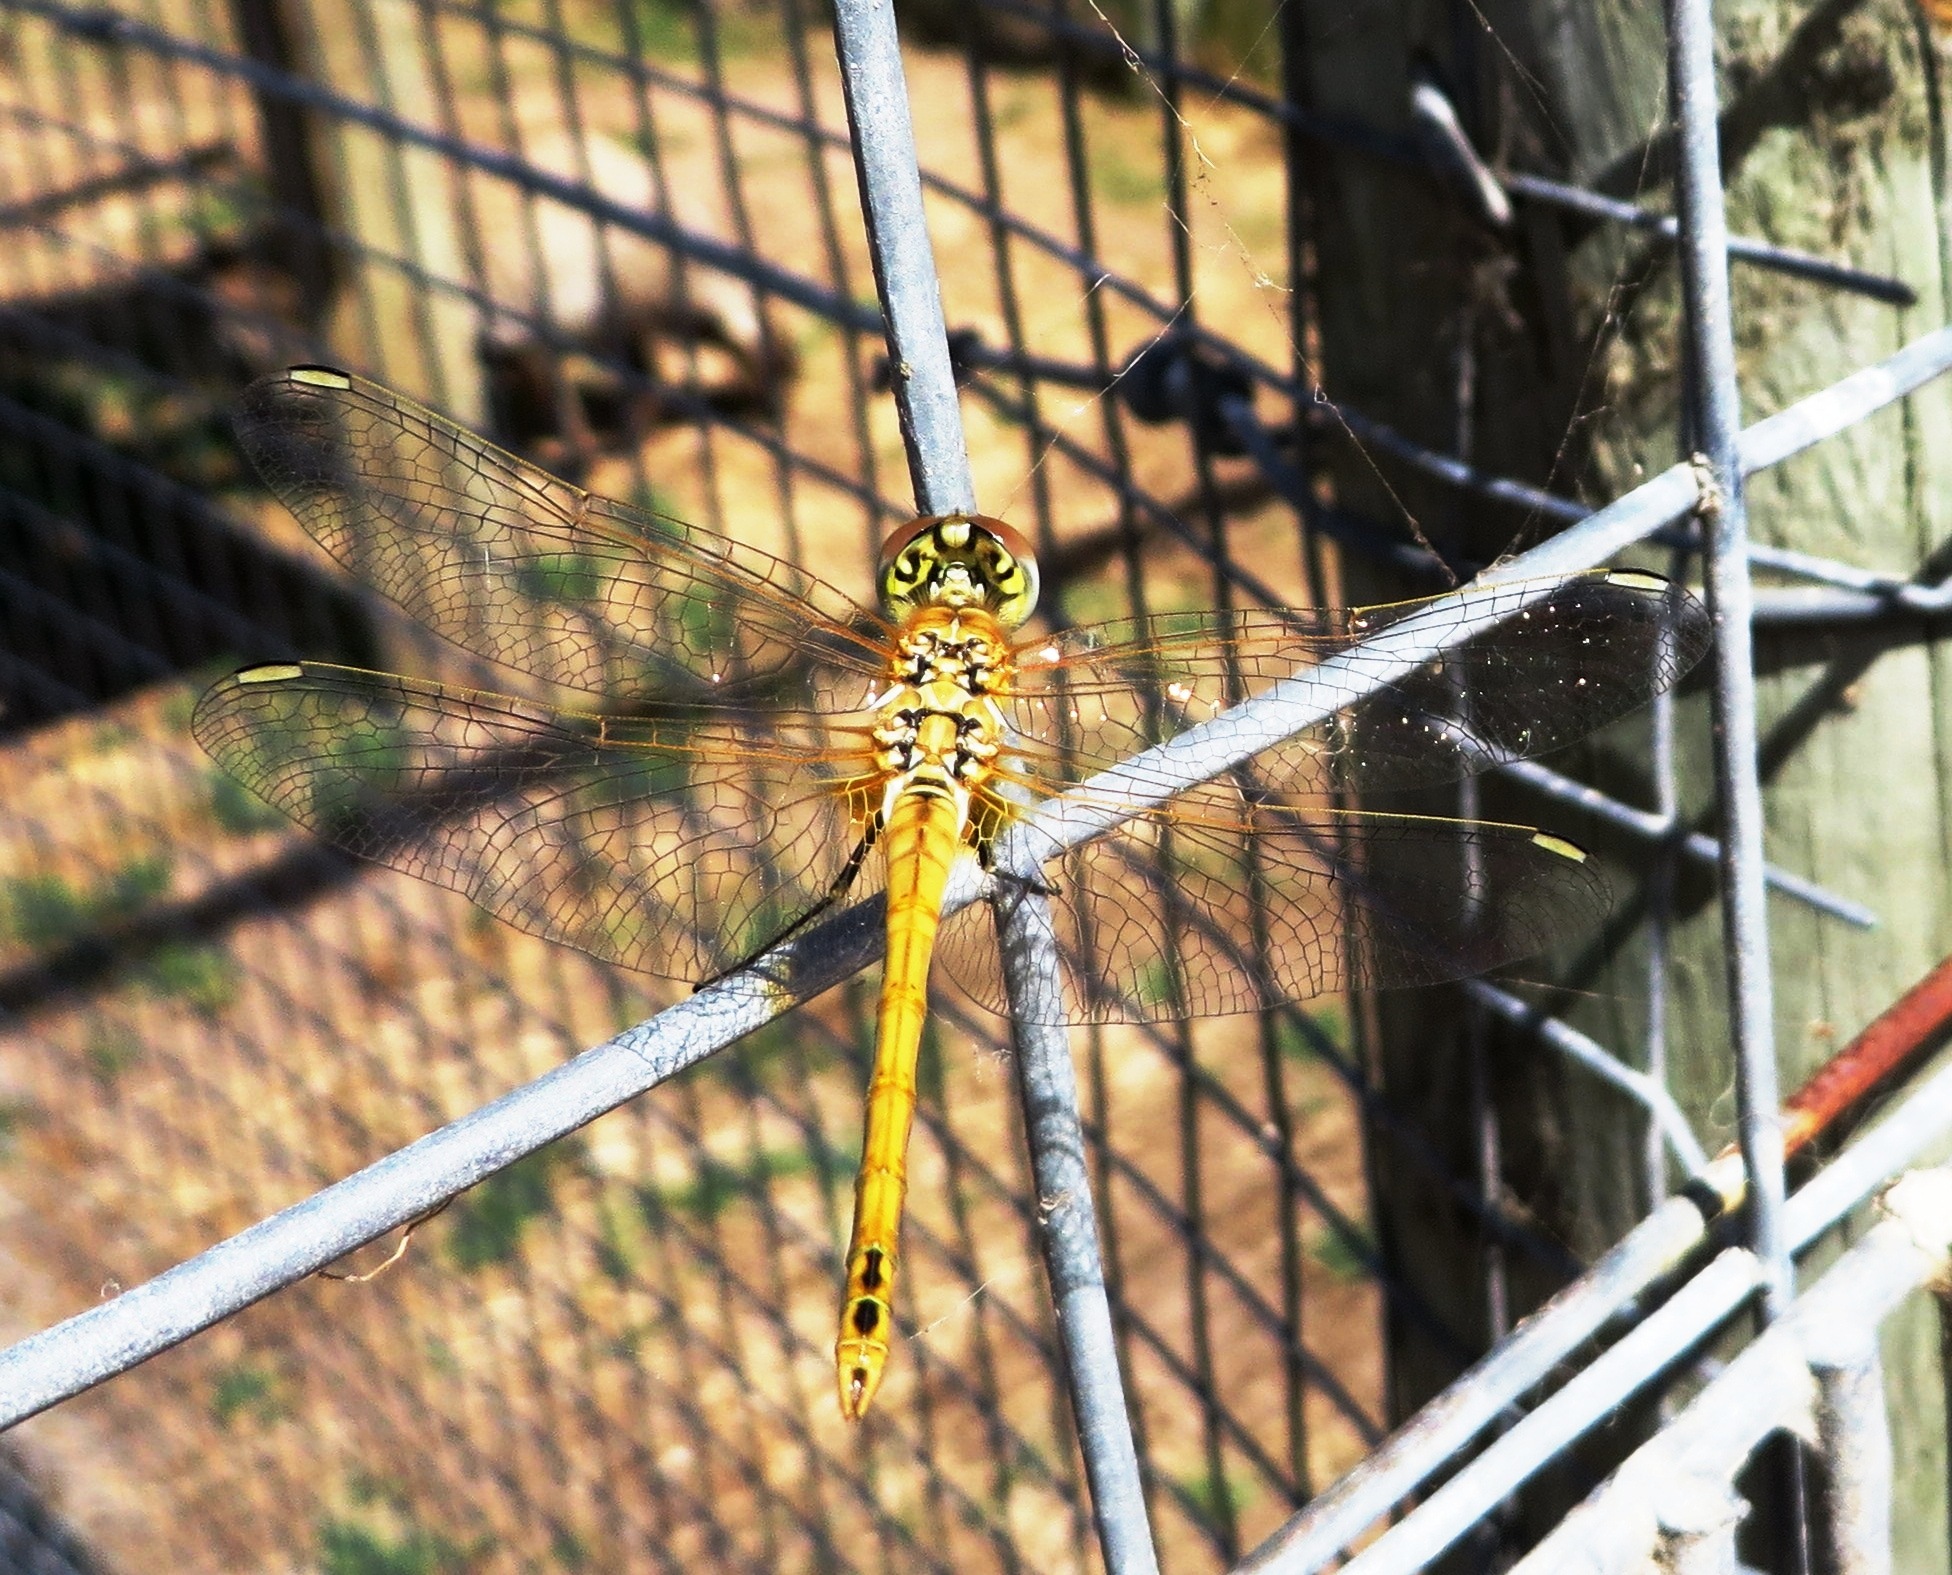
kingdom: Animalia
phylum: Arthropoda
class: Insecta
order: Odonata
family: Libellulidae
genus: Sympetrum
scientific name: Sympetrum fonscolombii
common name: Red-veined darter
